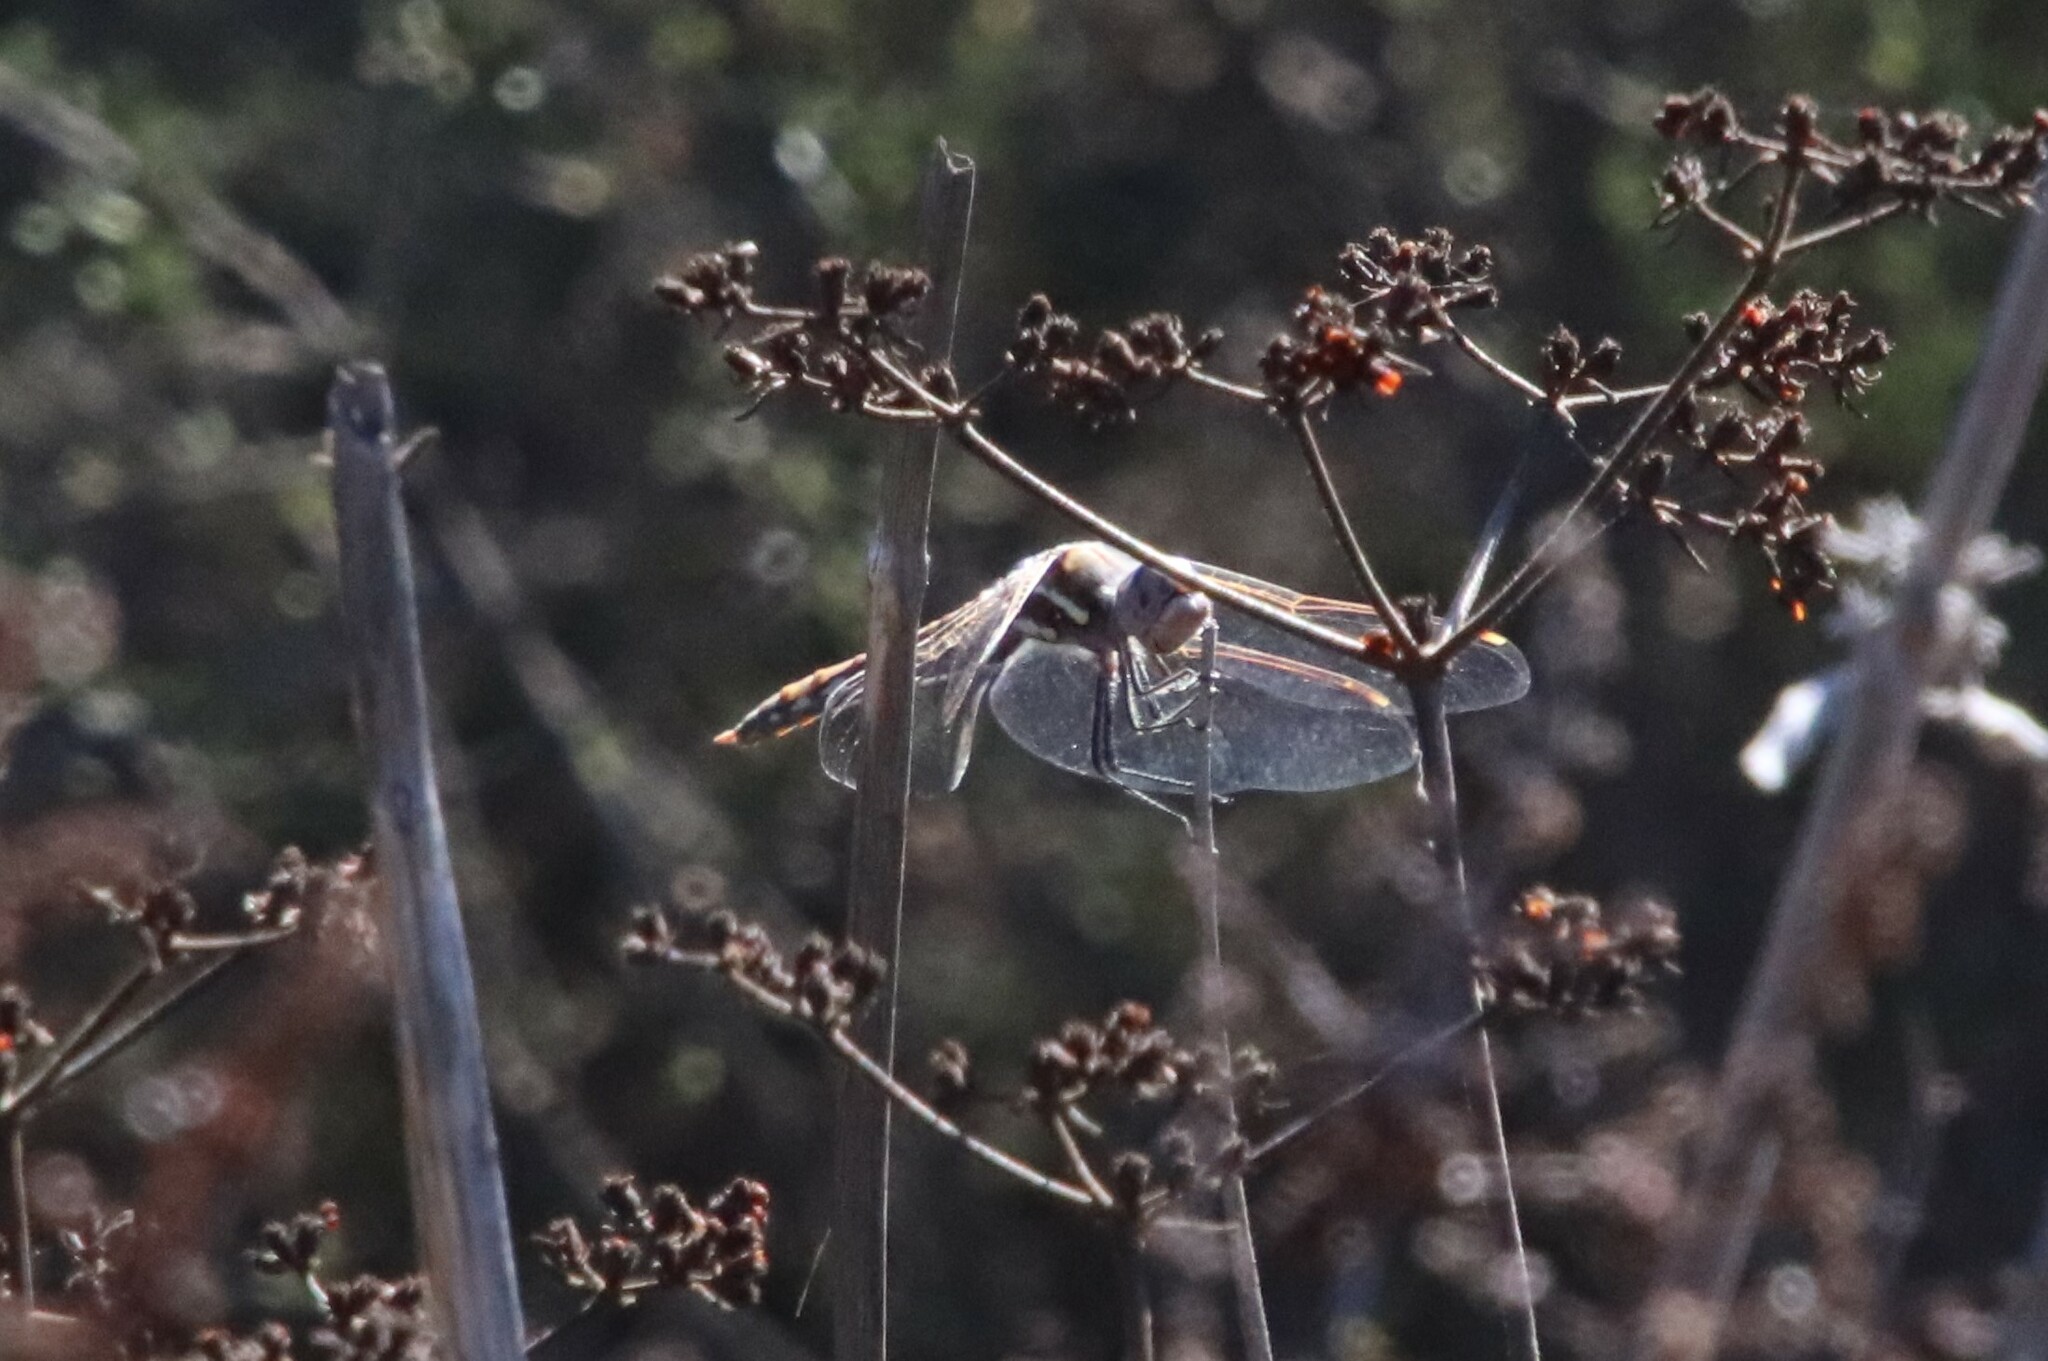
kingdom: Animalia
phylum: Arthropoda
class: Insecta
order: Odonata
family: Libellulidae
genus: Sympetrum
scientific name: Sympetrum corruptum
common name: Variegated meadowhawk
